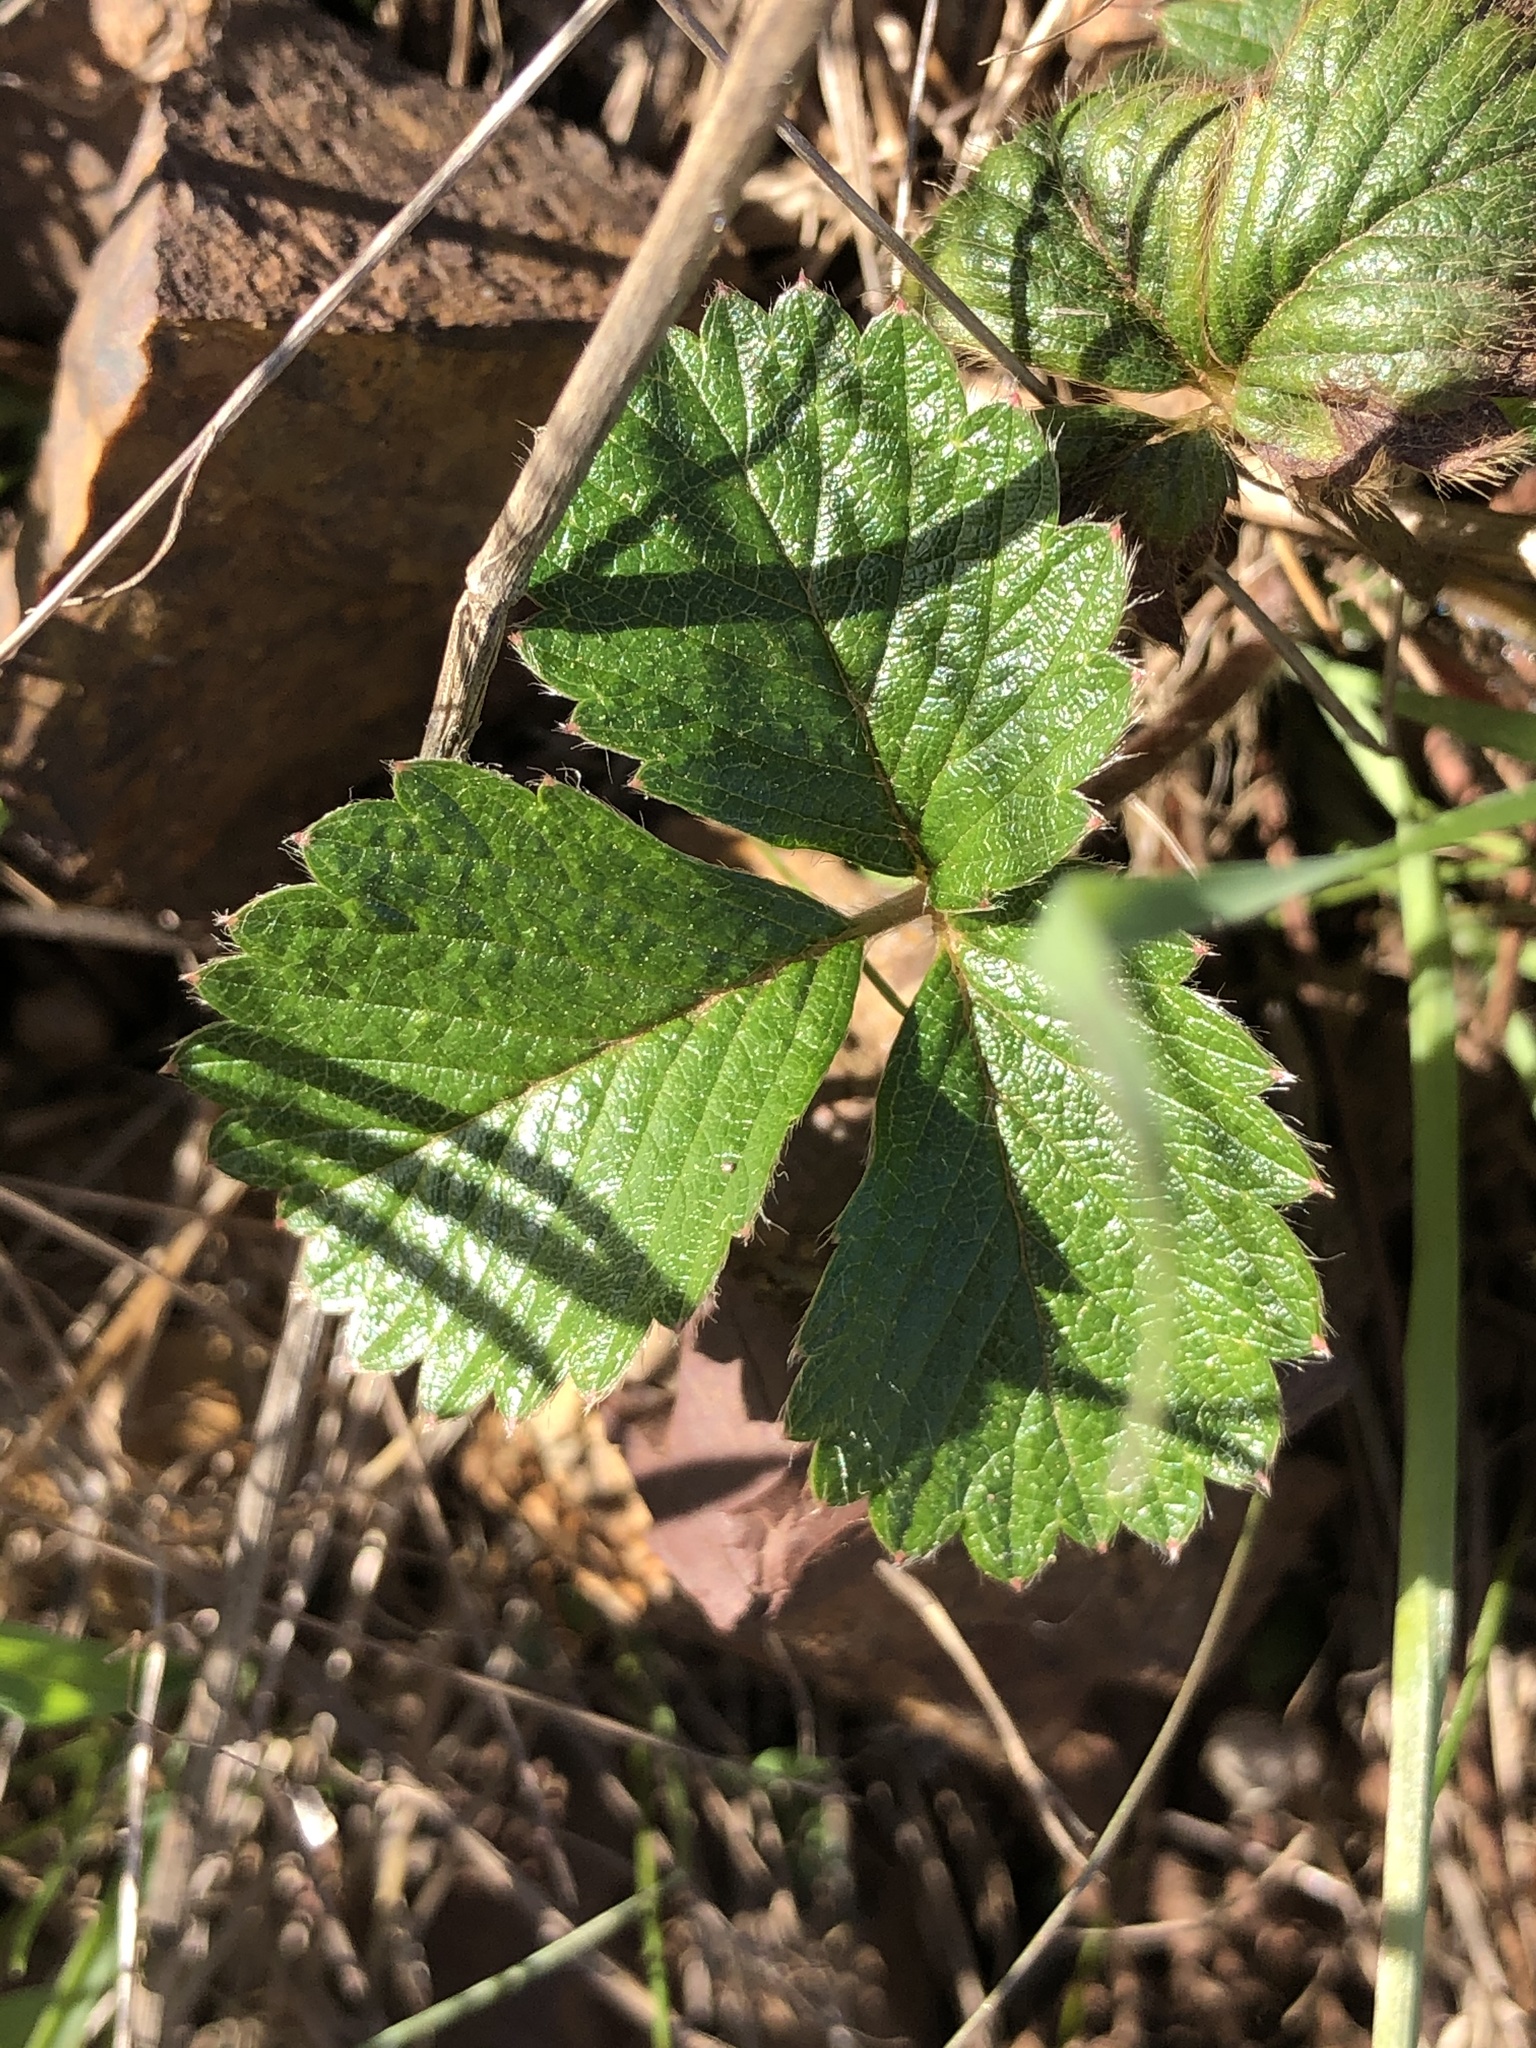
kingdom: Plantae
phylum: Tracheophyta
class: Magnoliopsida
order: Rosales
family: Rosaceae
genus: Fragaria
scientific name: Fragaria chiloensis
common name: Beach strawberry
